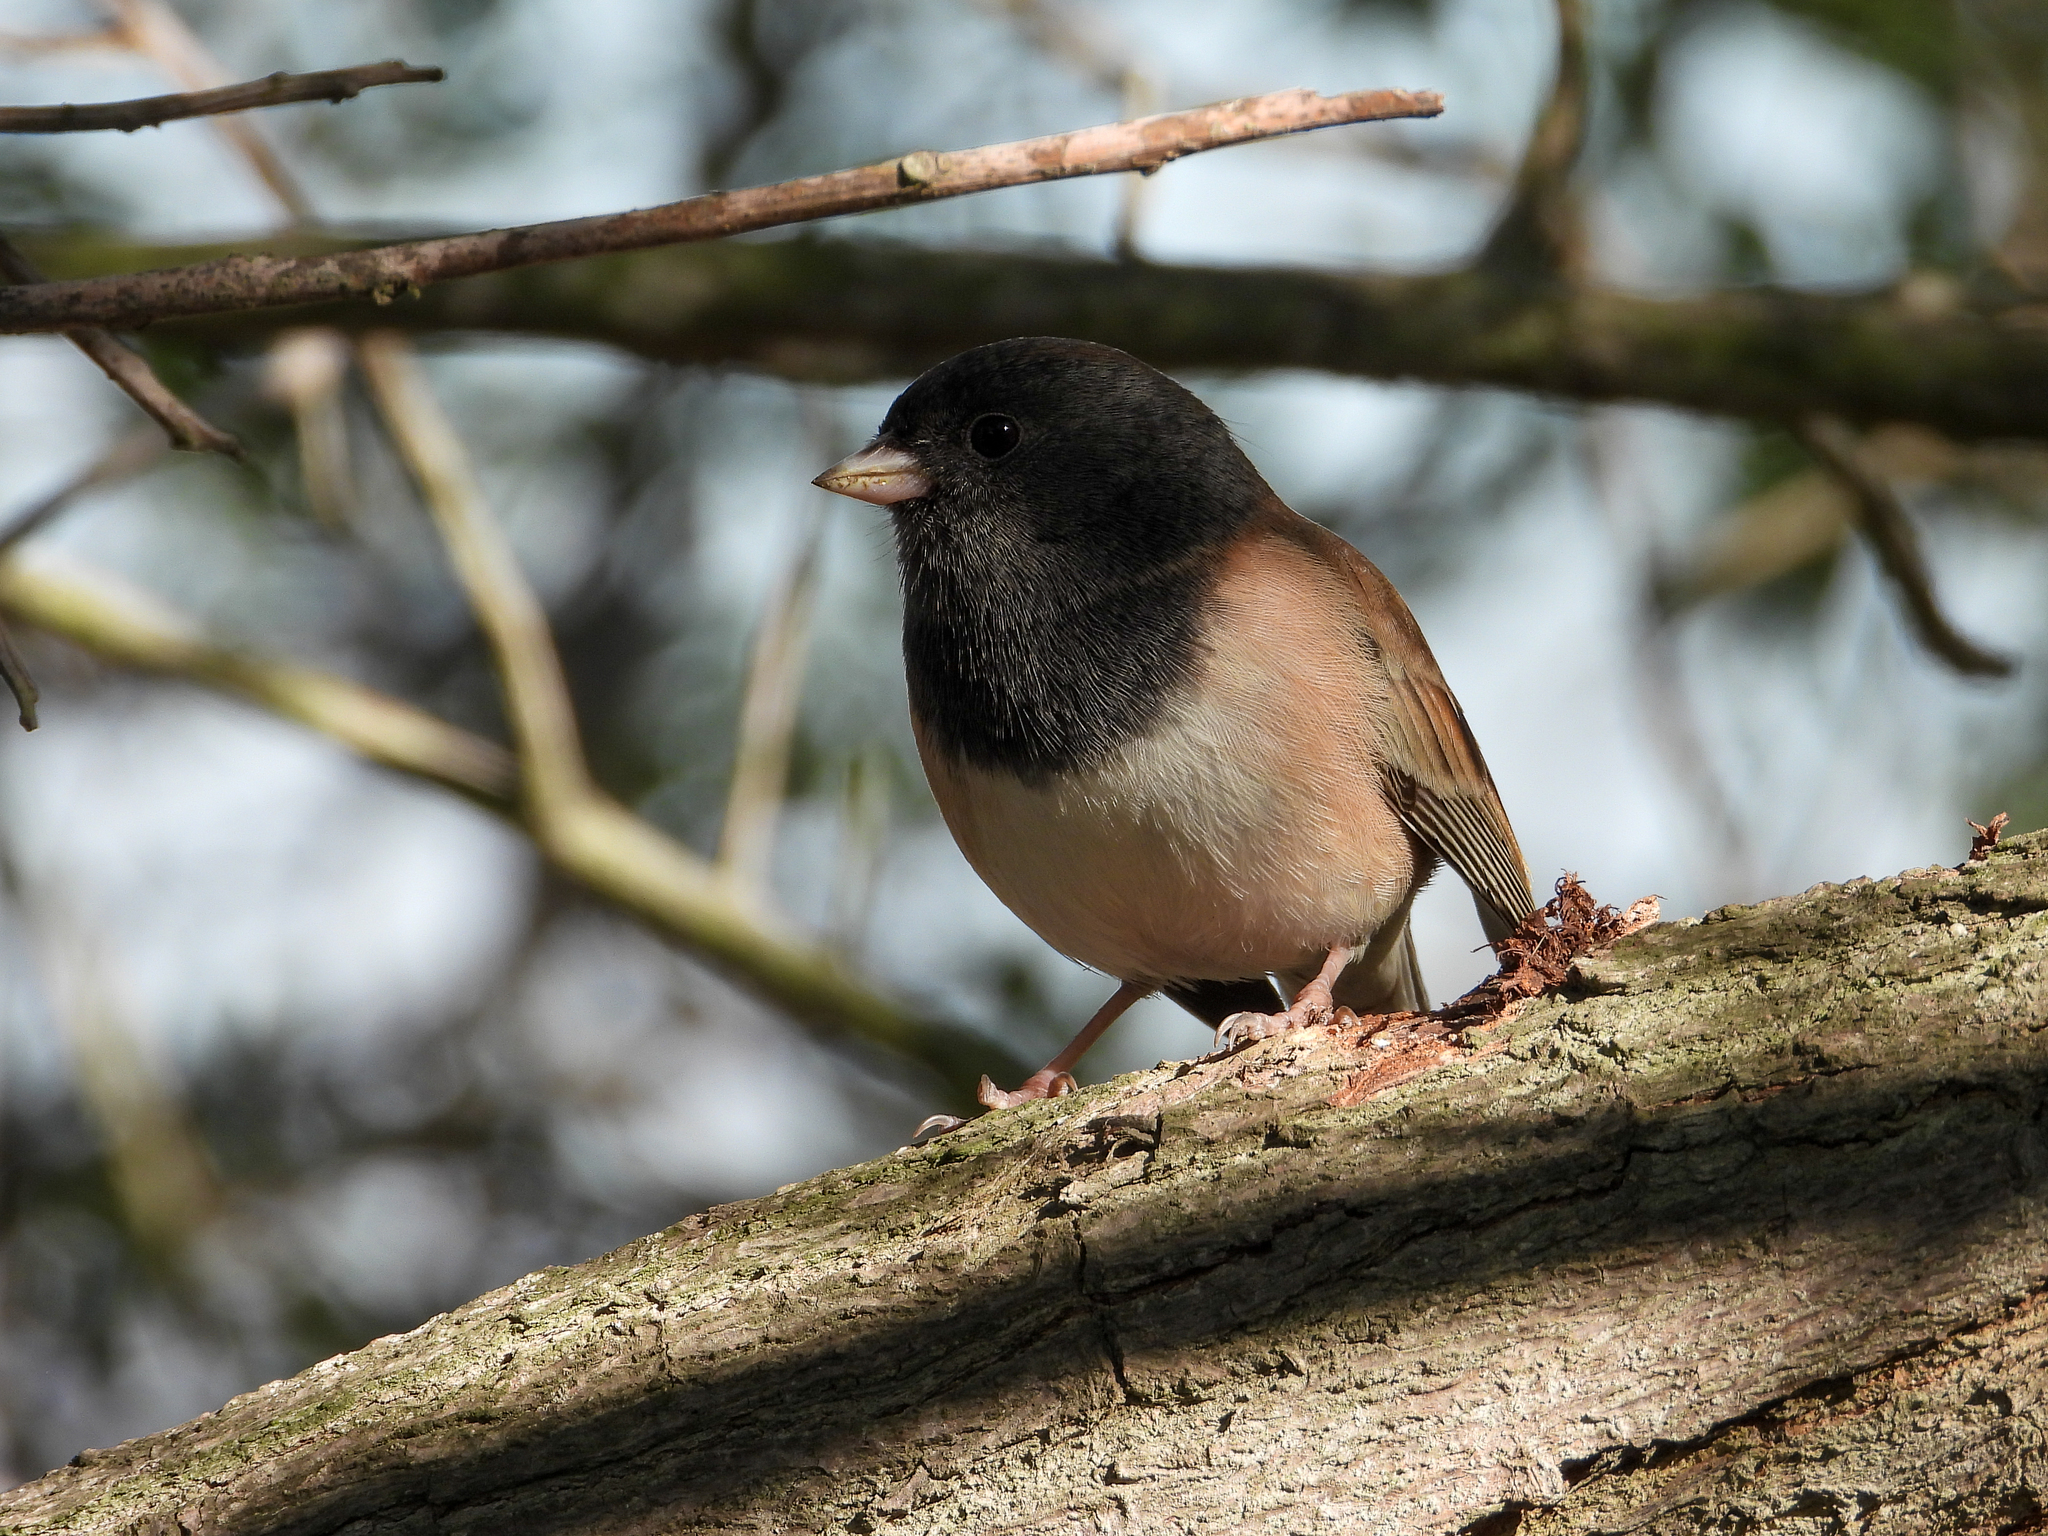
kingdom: Animalia
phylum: Chordata
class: Aves
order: Passeriformes
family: Passerellidae
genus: Junco
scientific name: Junco hyemalis
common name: Dark-eyed junco
